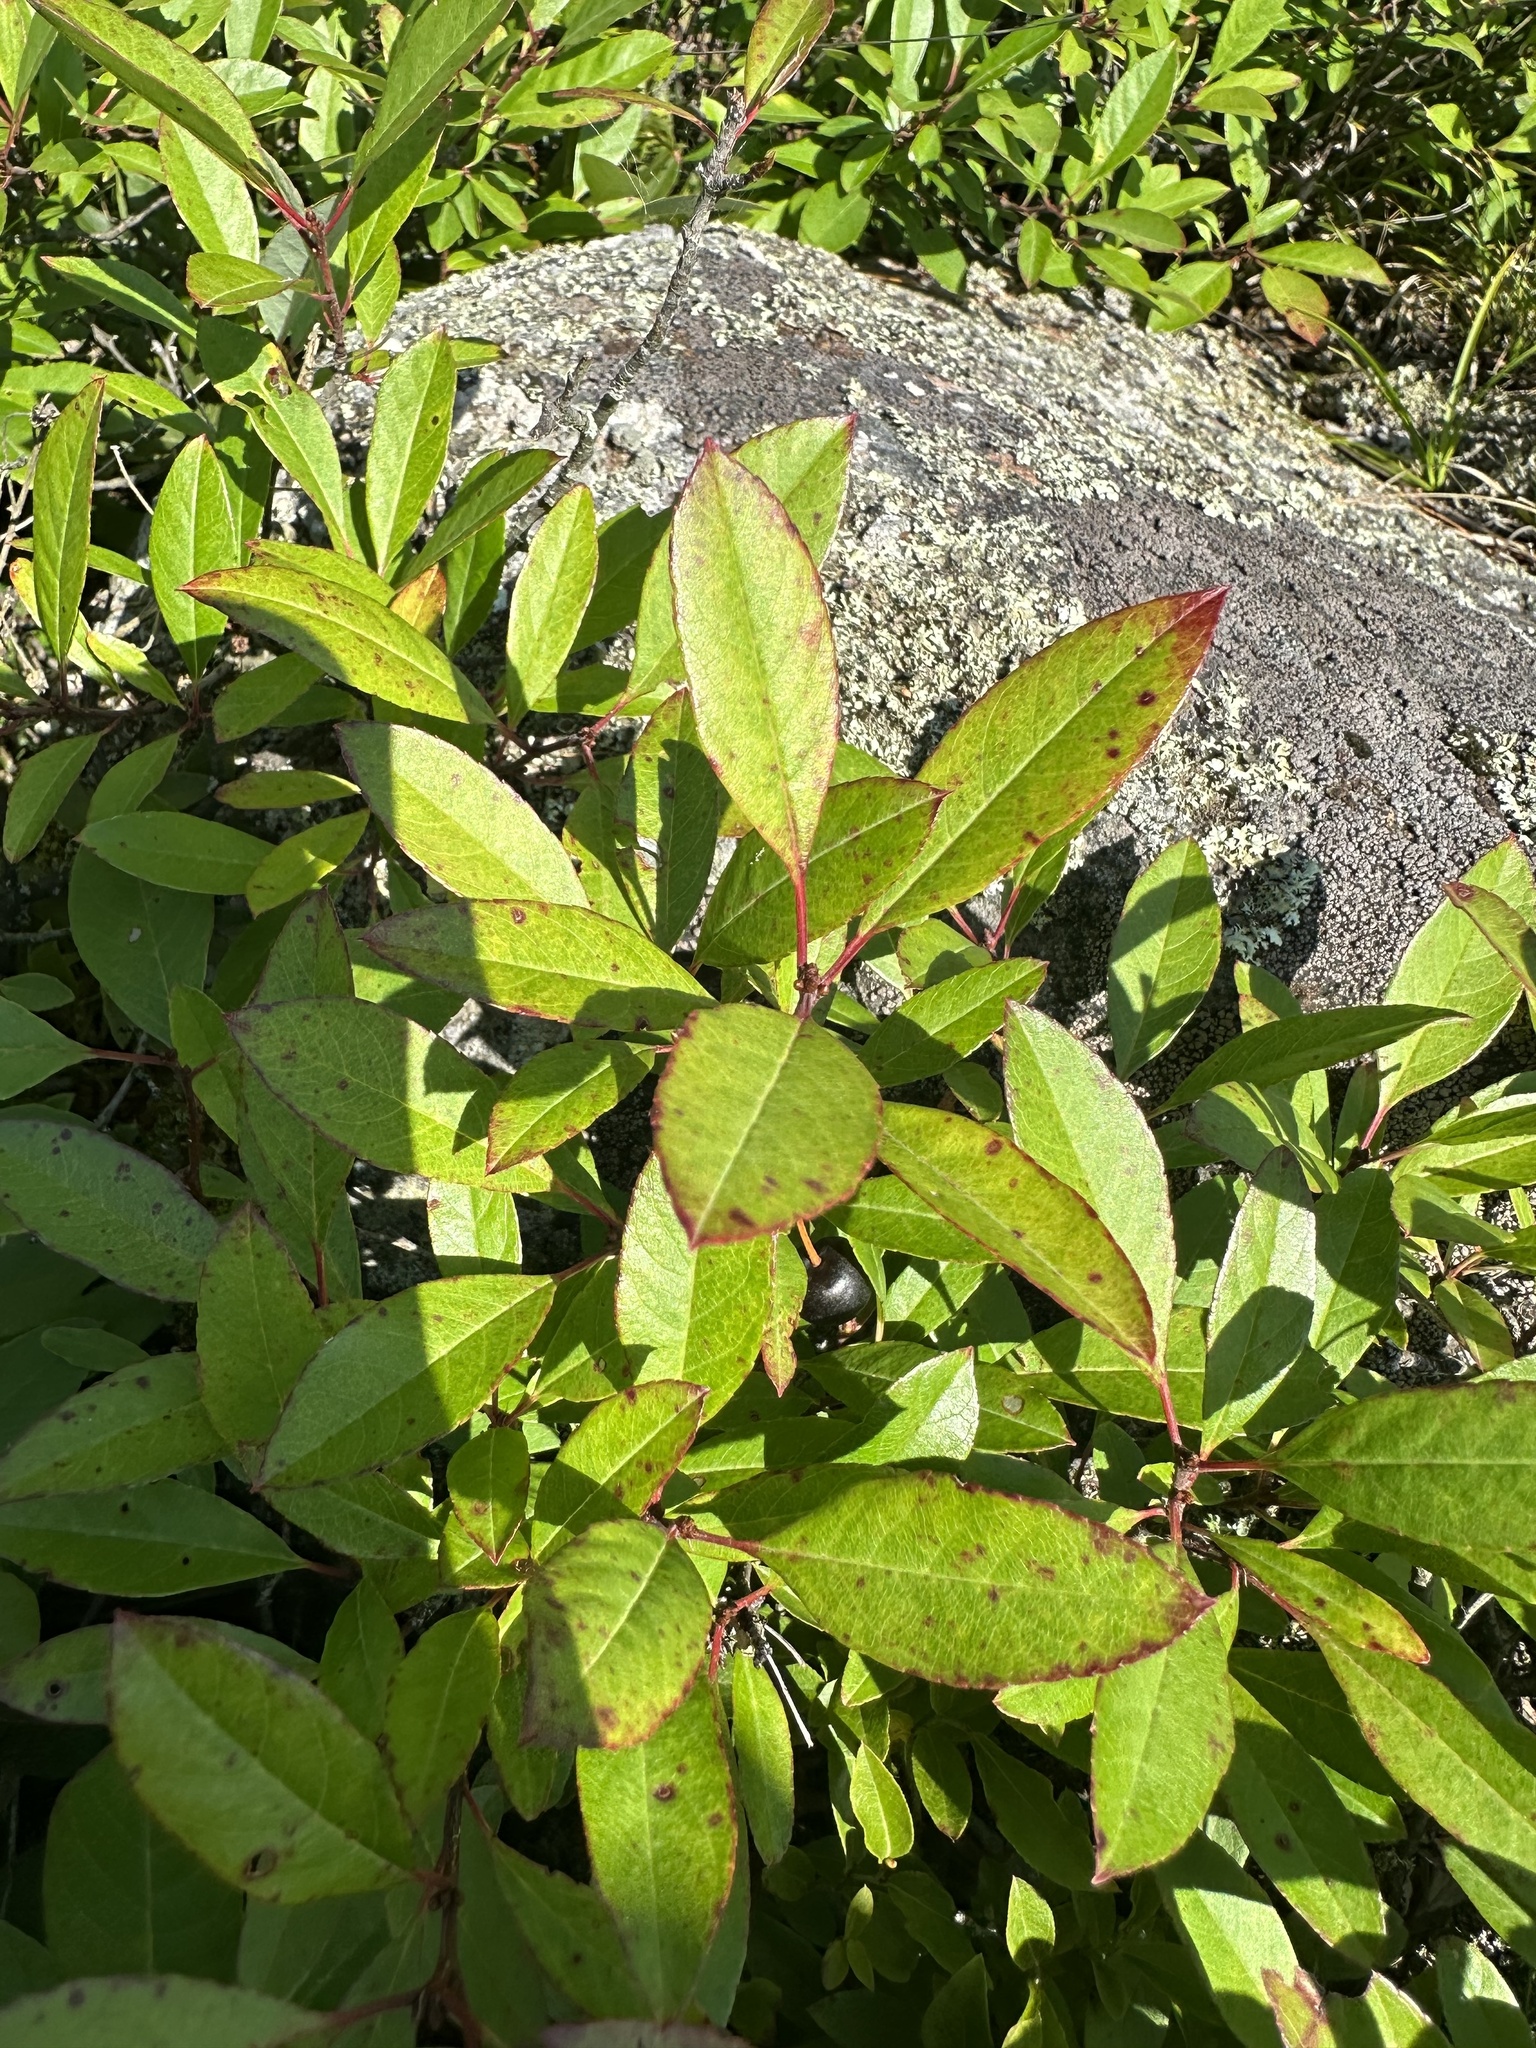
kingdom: Plantae
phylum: Tracheophyta
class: Magnoliopsida
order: Rosales
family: Rosaceae
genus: Prunus
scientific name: Prunus susquehanae
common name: Sesquehana sandcherry
